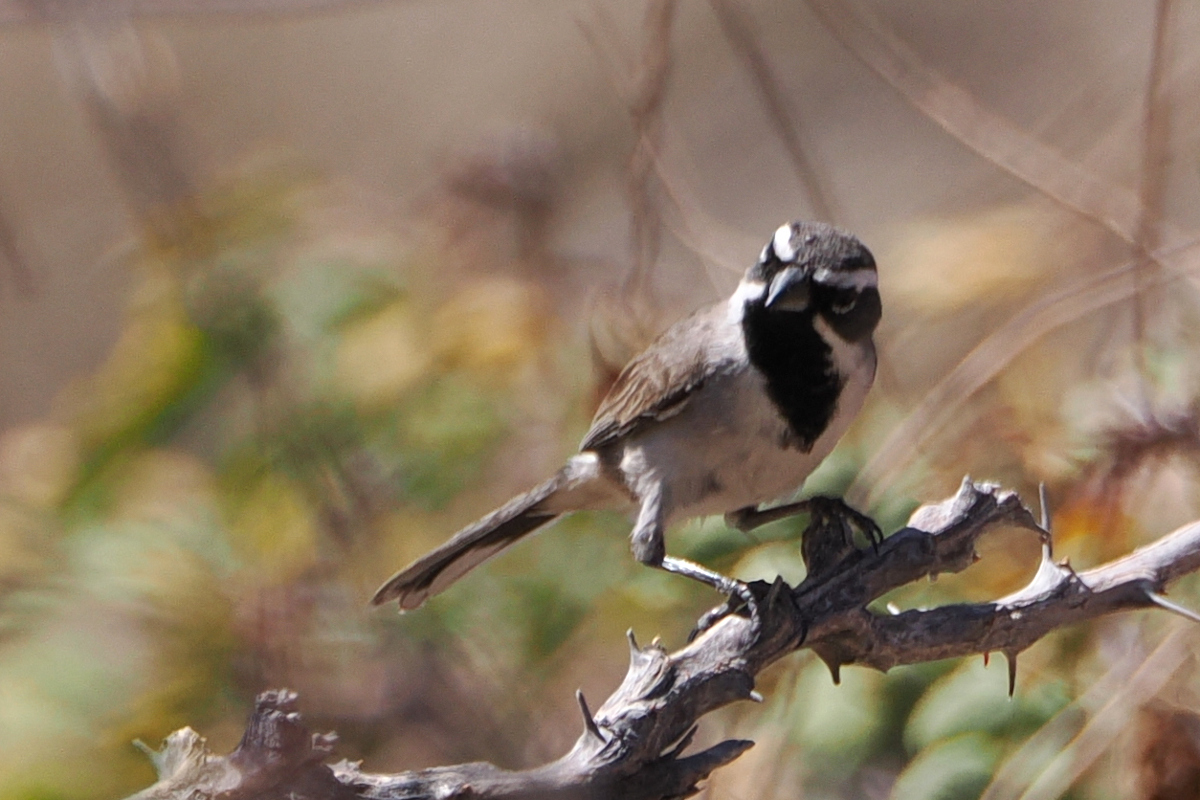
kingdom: Animalia
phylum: Chordata
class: Aves
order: Passeriformes
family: Passerellidae
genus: Amphispiza
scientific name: Amphispiza bilineata
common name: Black-throated sparrow
